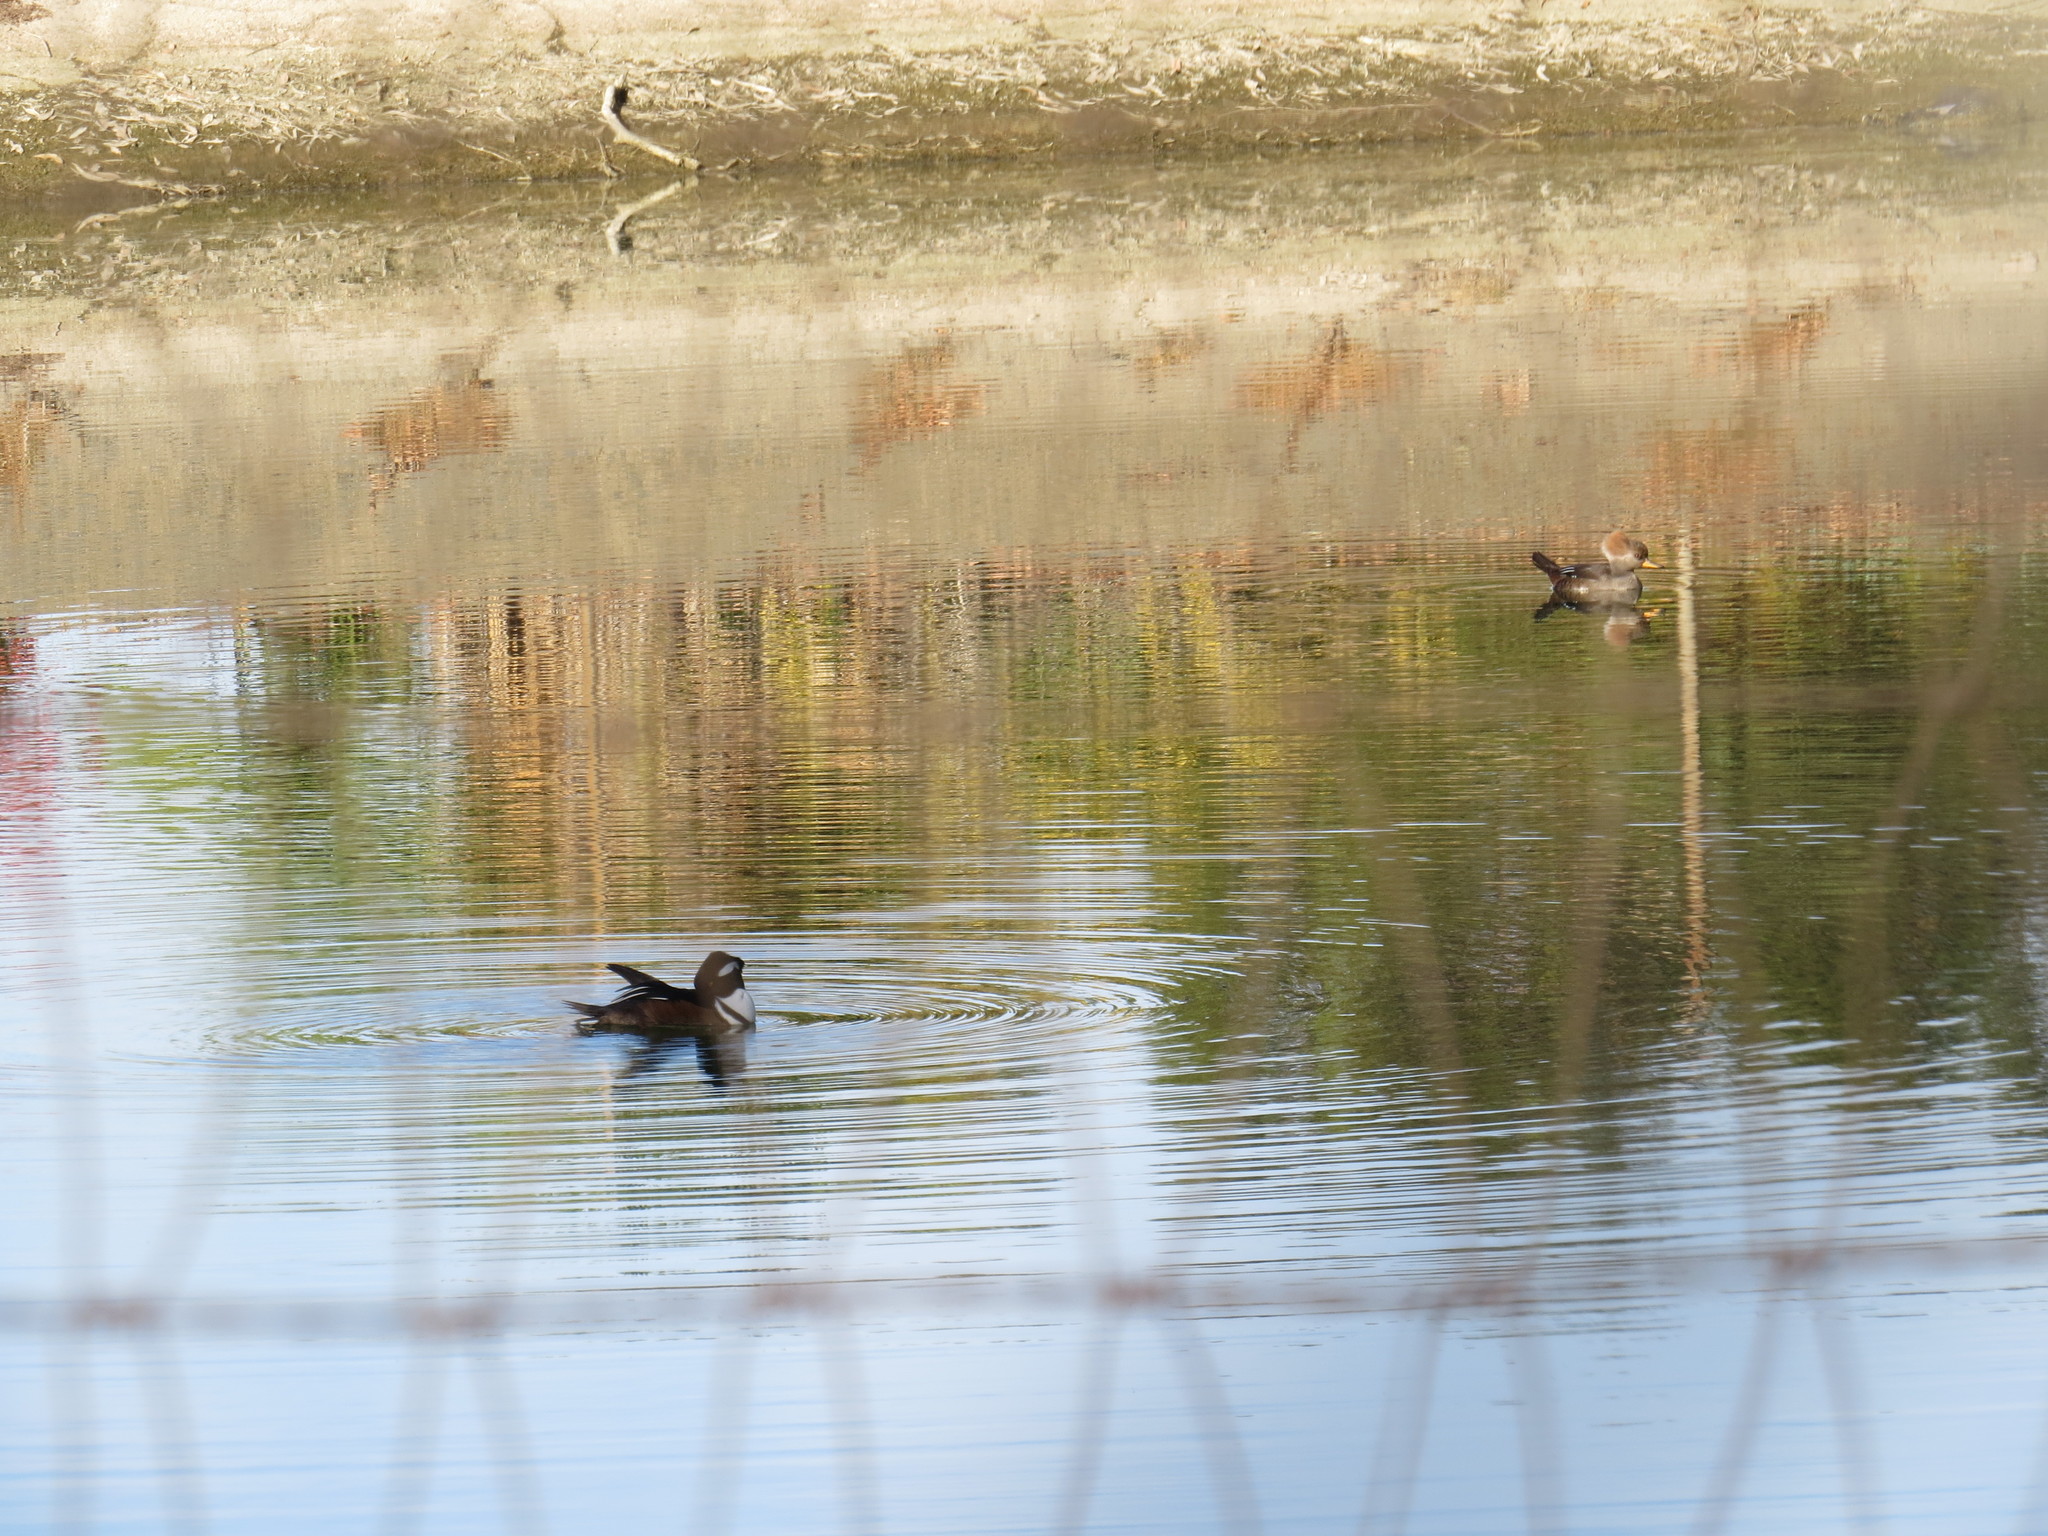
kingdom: Animalia
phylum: Chordata
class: Aves
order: Anseriformes
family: Anatidae
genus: Lophodytes
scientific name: Lophodytes cucullatus
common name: Hooded merganser
